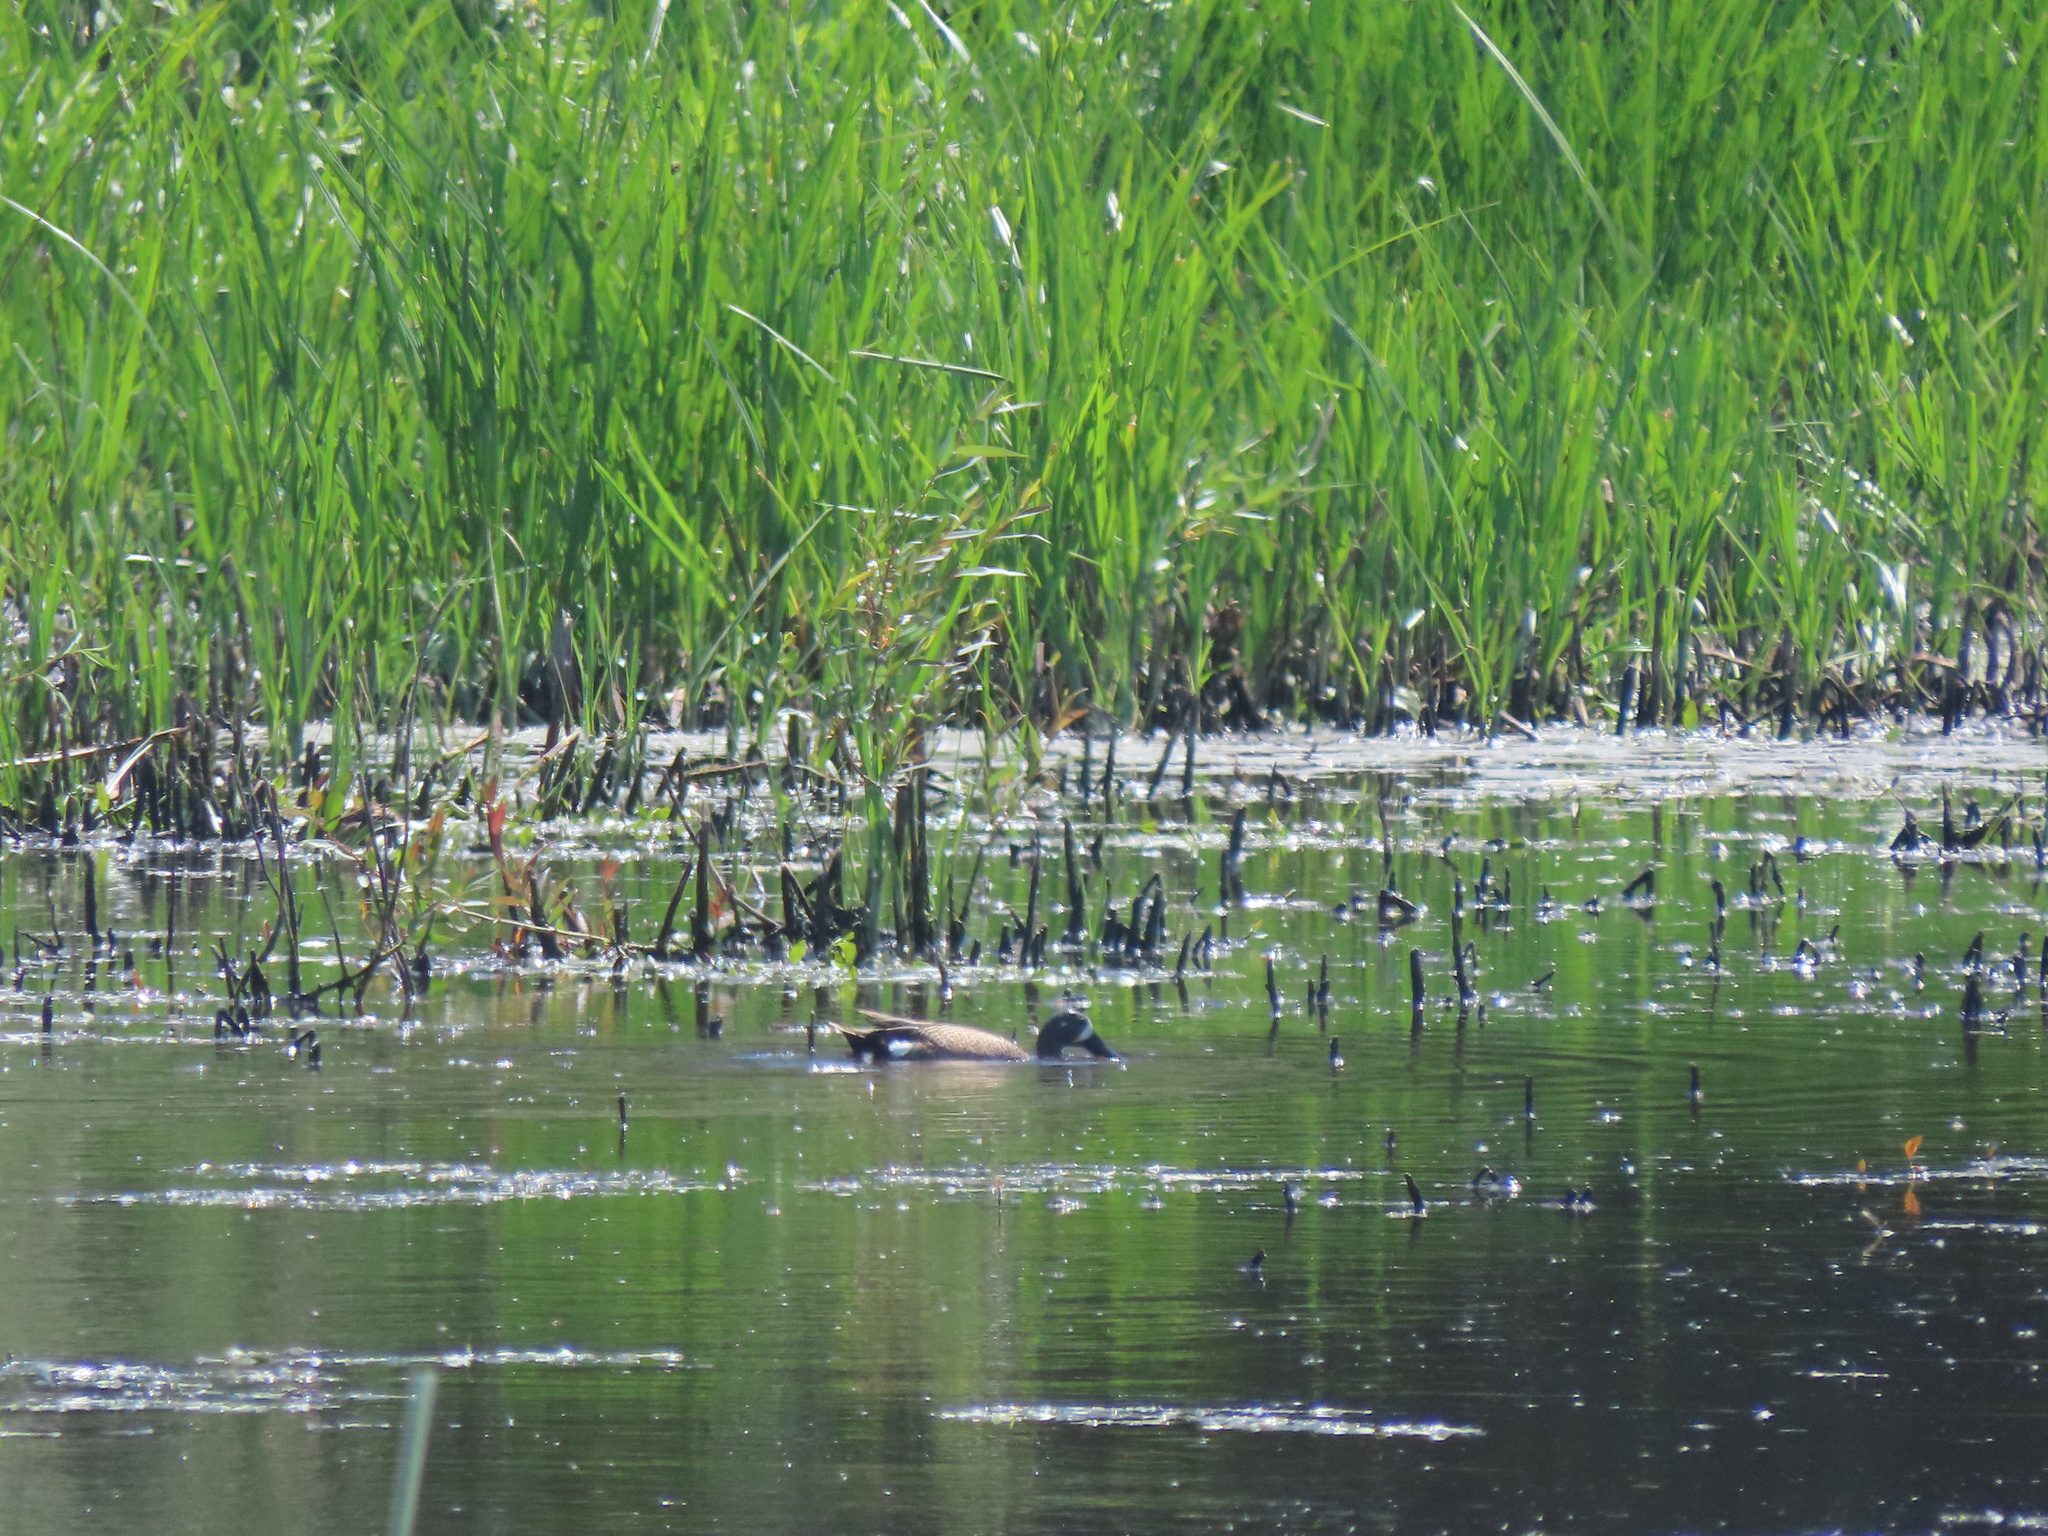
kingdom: Animalia
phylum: Chordata
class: Aves
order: Anseriformes
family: Anatidae
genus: Spatula
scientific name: Spatula discors
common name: Blue-winged teal
